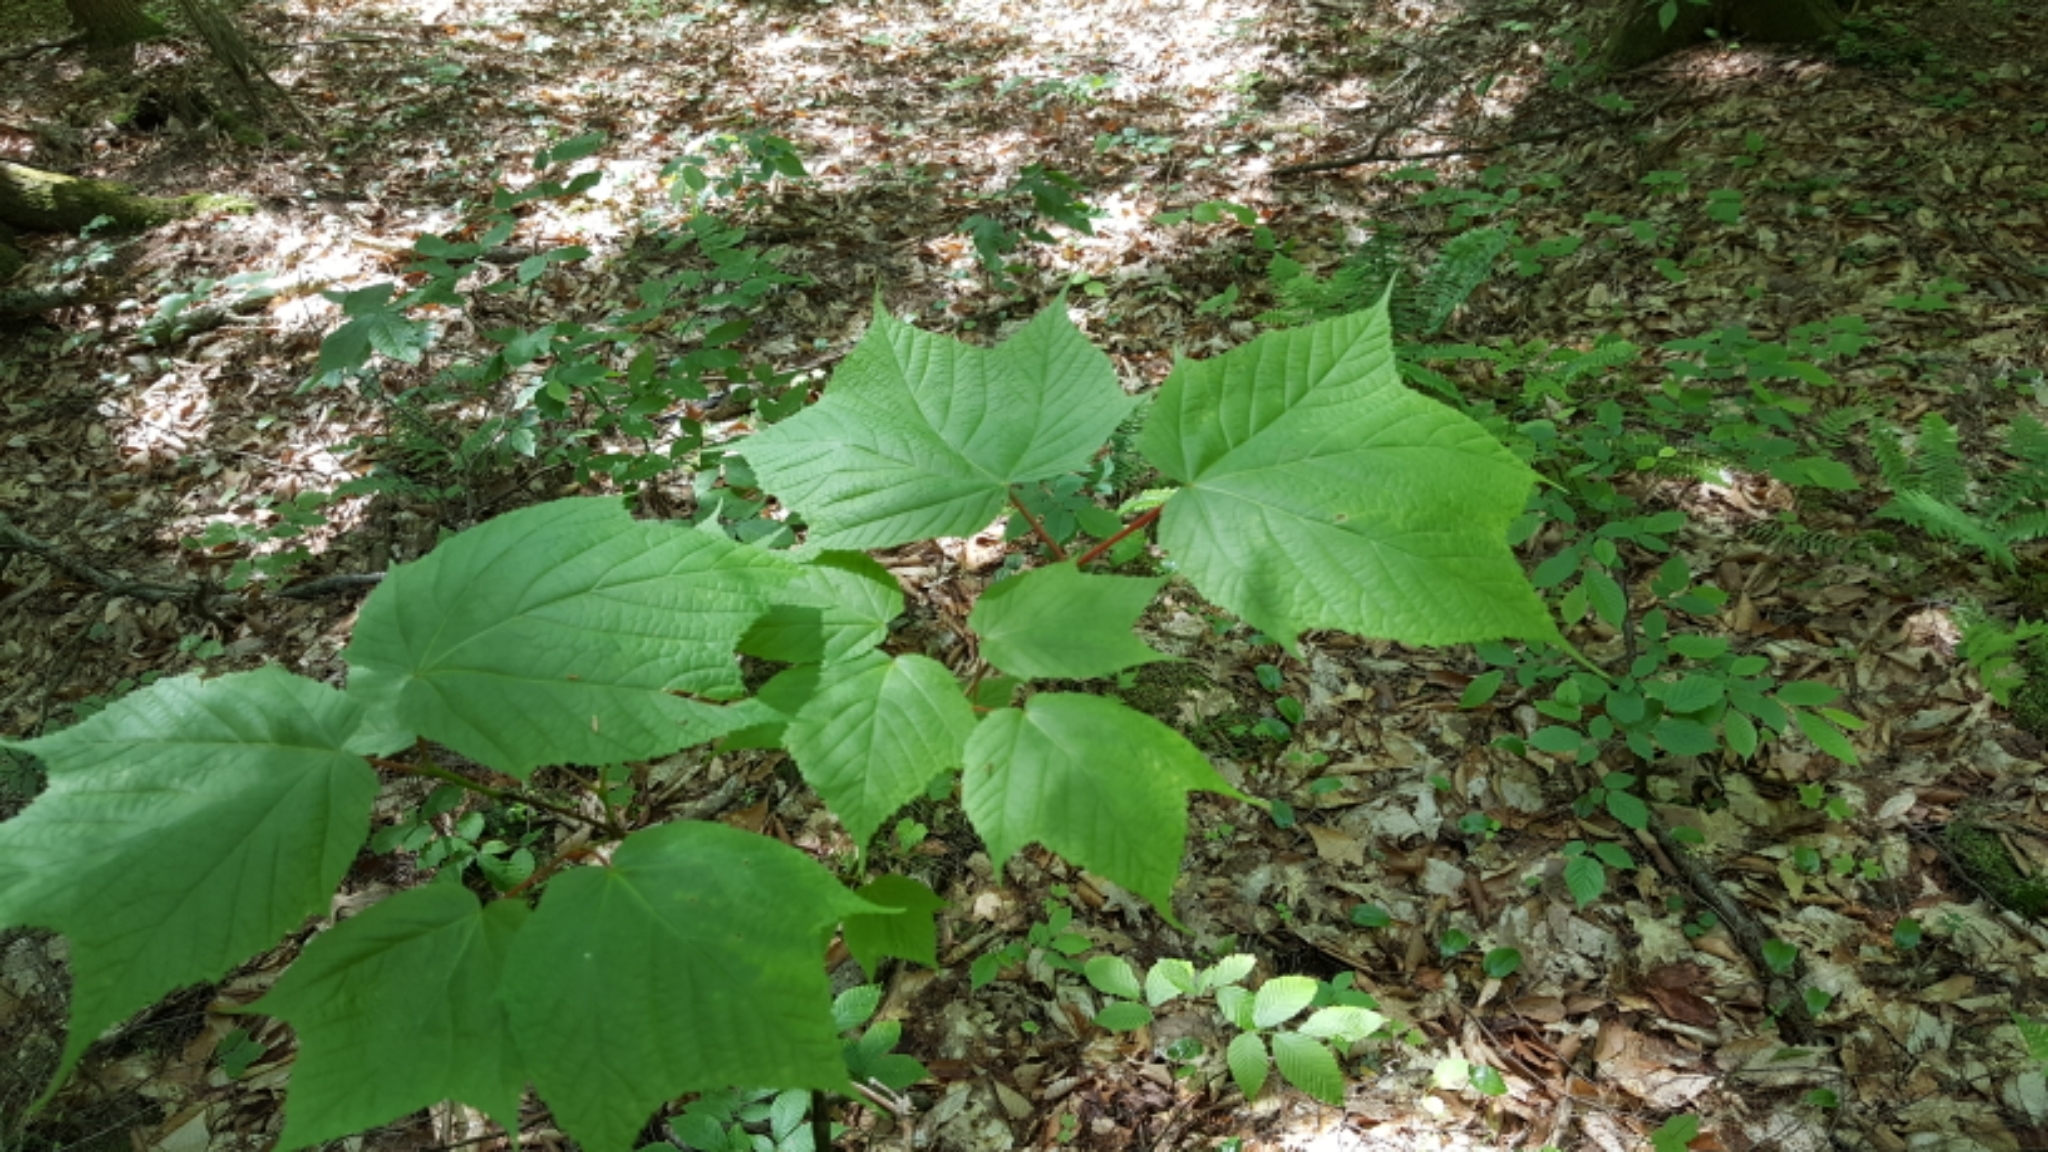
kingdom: Plantae
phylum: Tracheophyta
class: Magnoliopsida
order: Sapindales
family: Sapindaceae
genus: Acer
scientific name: Acer pensylvanicum
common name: Moosewood
